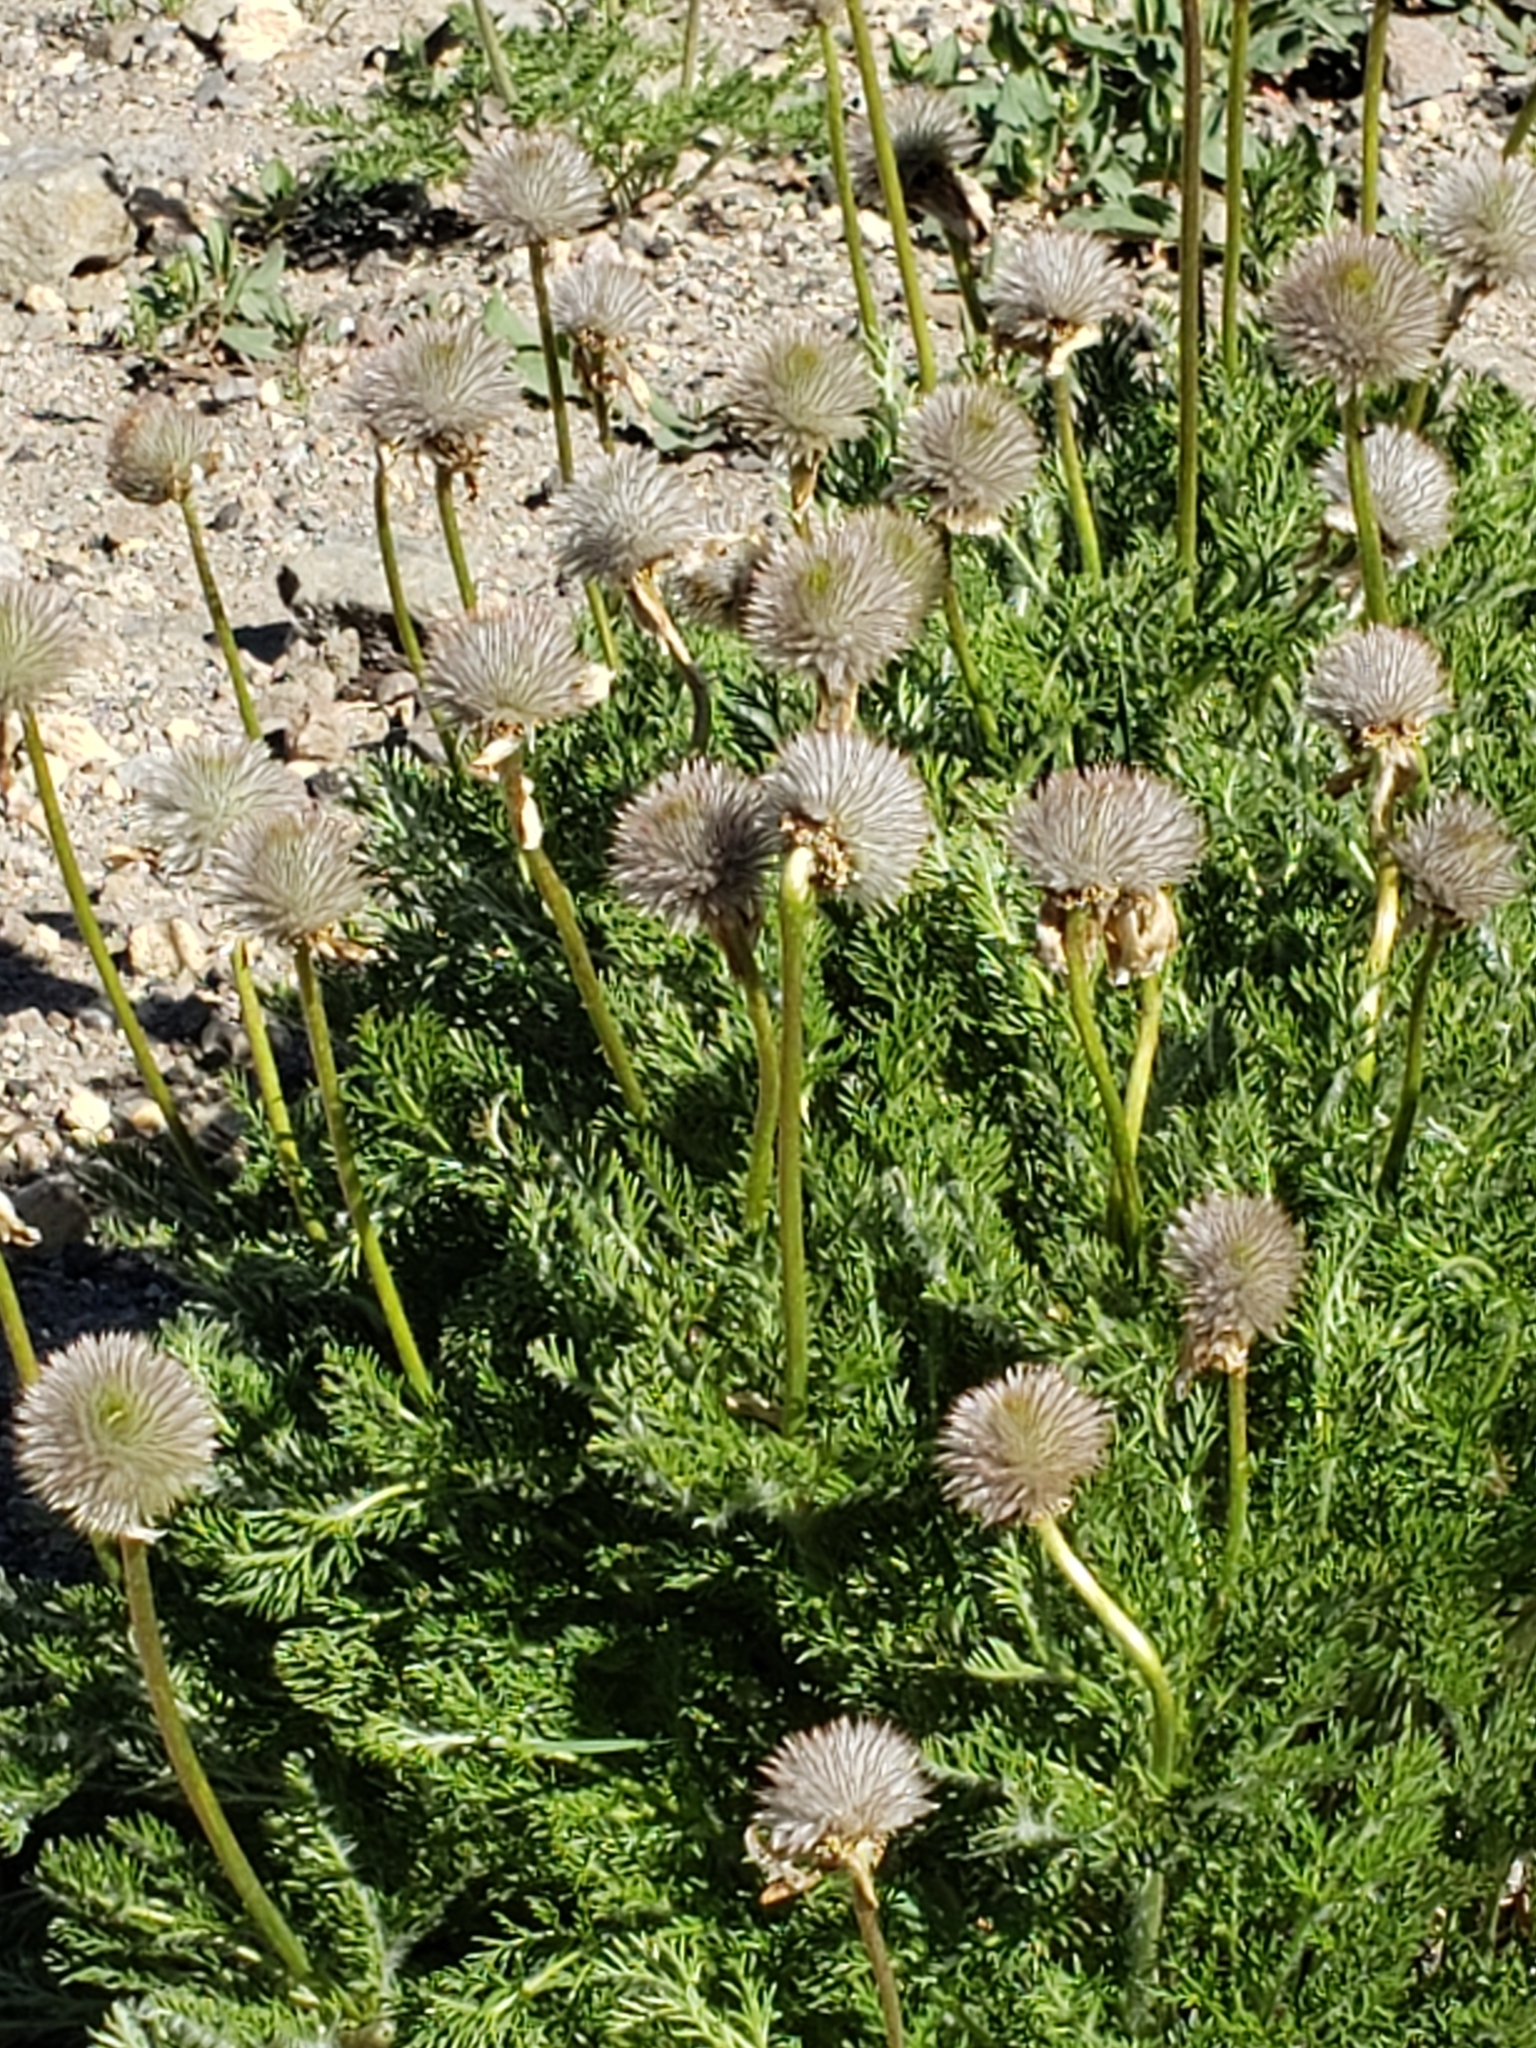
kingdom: Plantae
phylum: Tracheophyta
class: Magnoliopsida
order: Ranunculales
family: Ranunculaceae
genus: Pulsatilla
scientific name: Pulsatilla occidentalis
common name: Mountain pasqueflower
